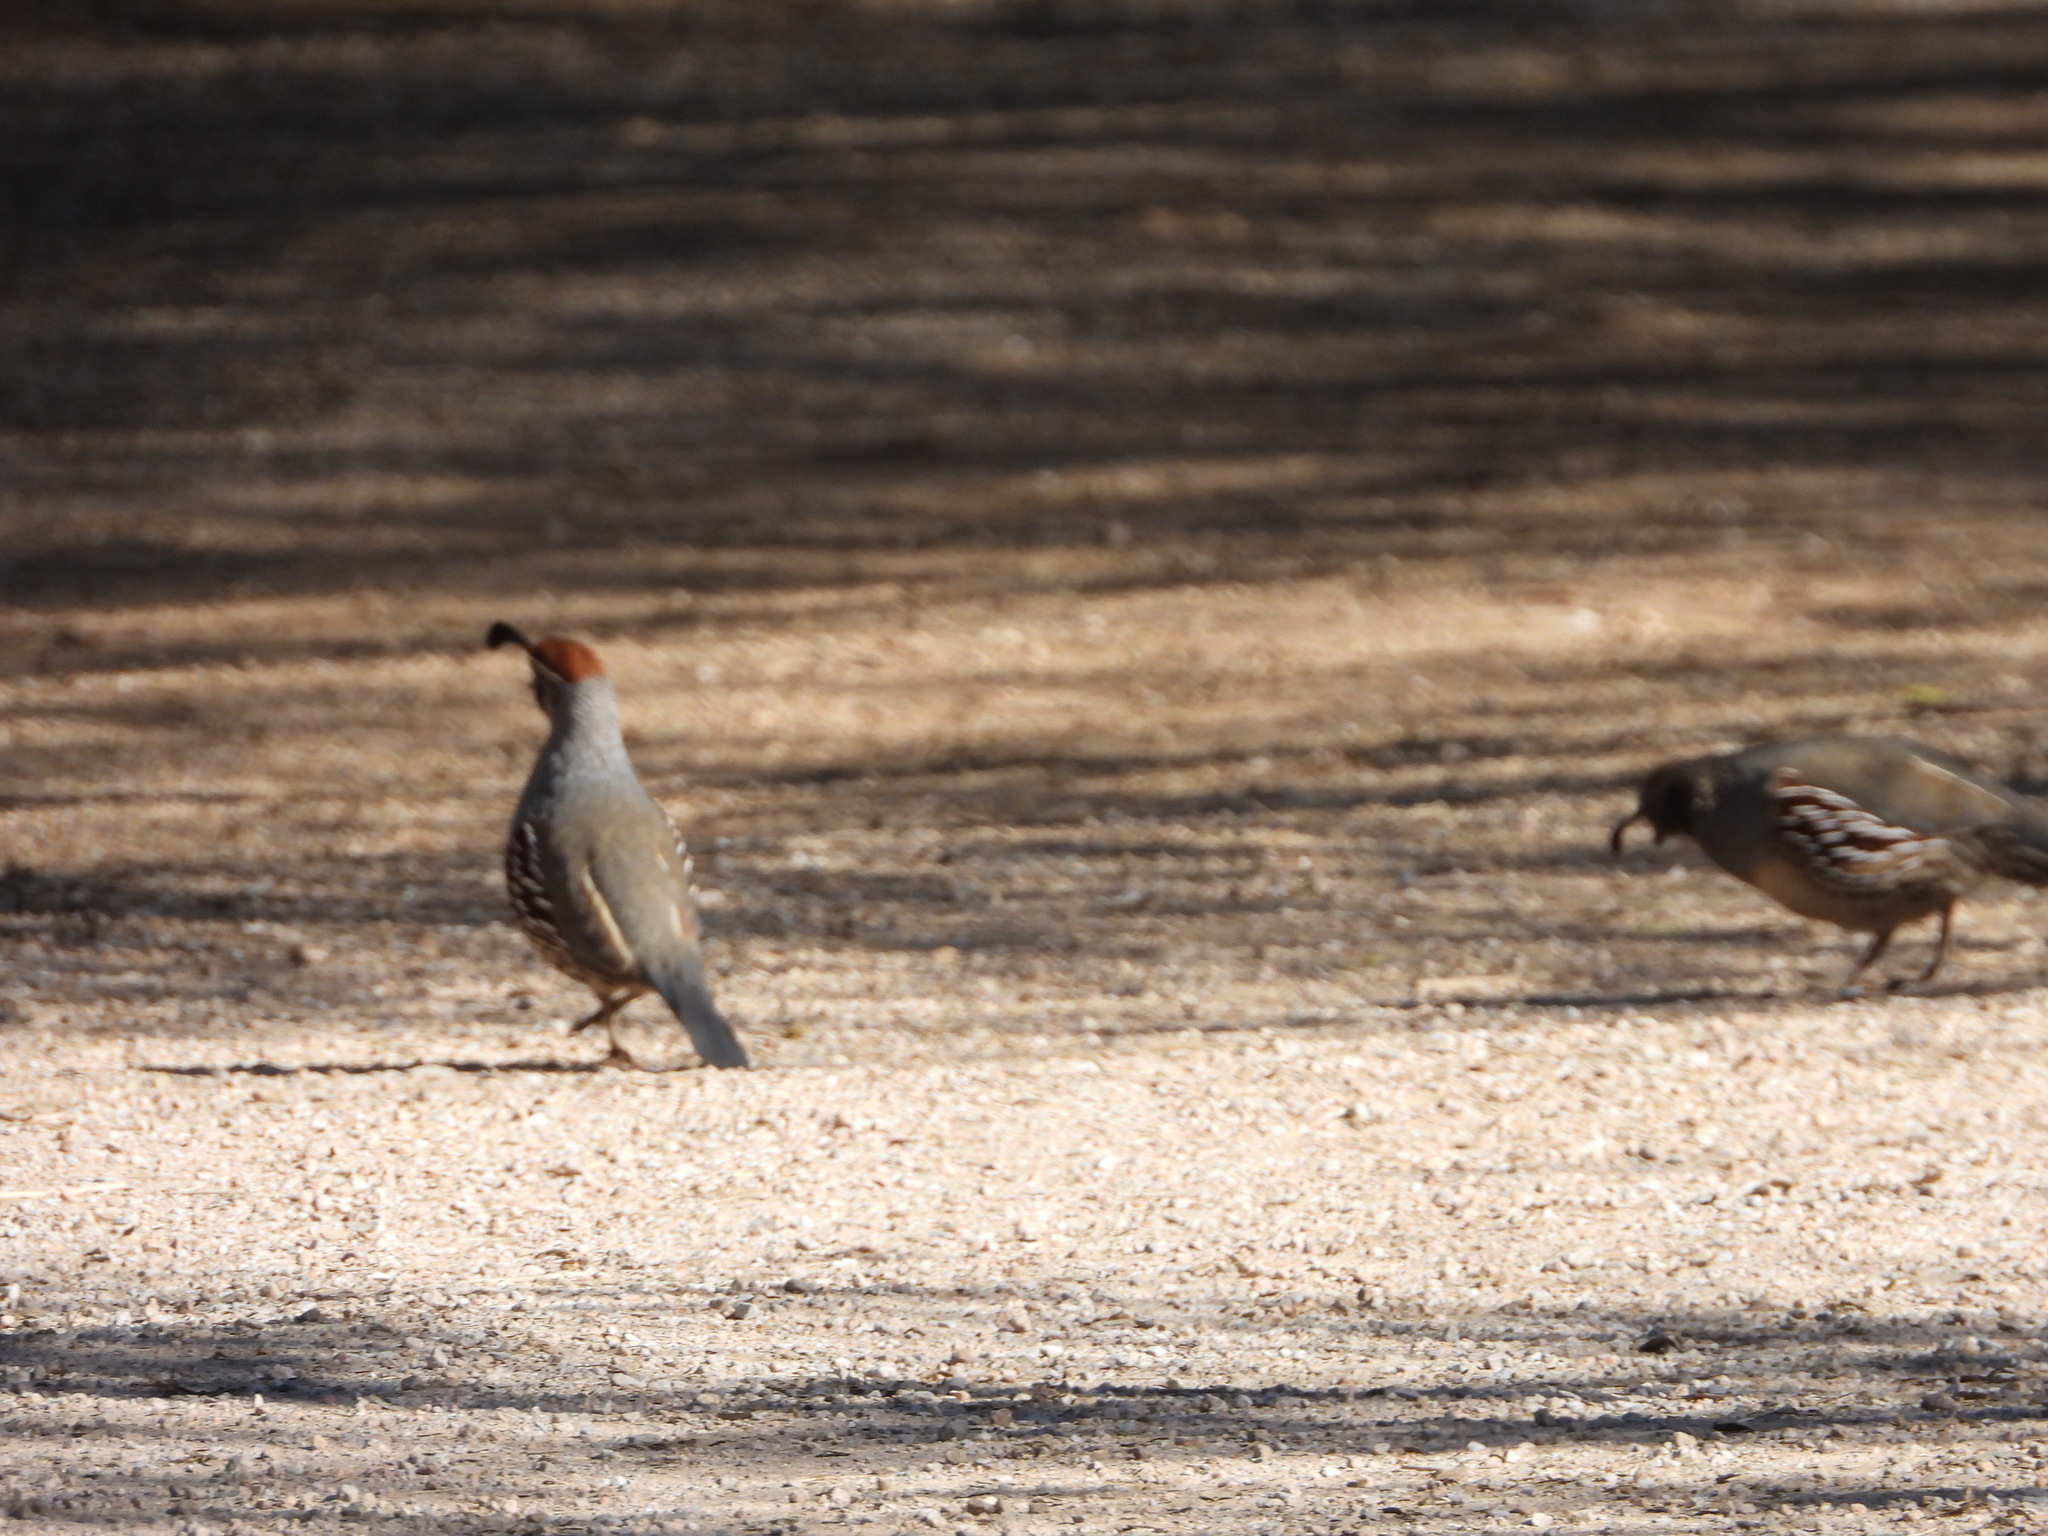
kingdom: Animalia
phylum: Chordata
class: Aves
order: Galliformes
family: Odontophoridae
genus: Callipepla
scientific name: Callipepla gambelii
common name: Gambel's quail
